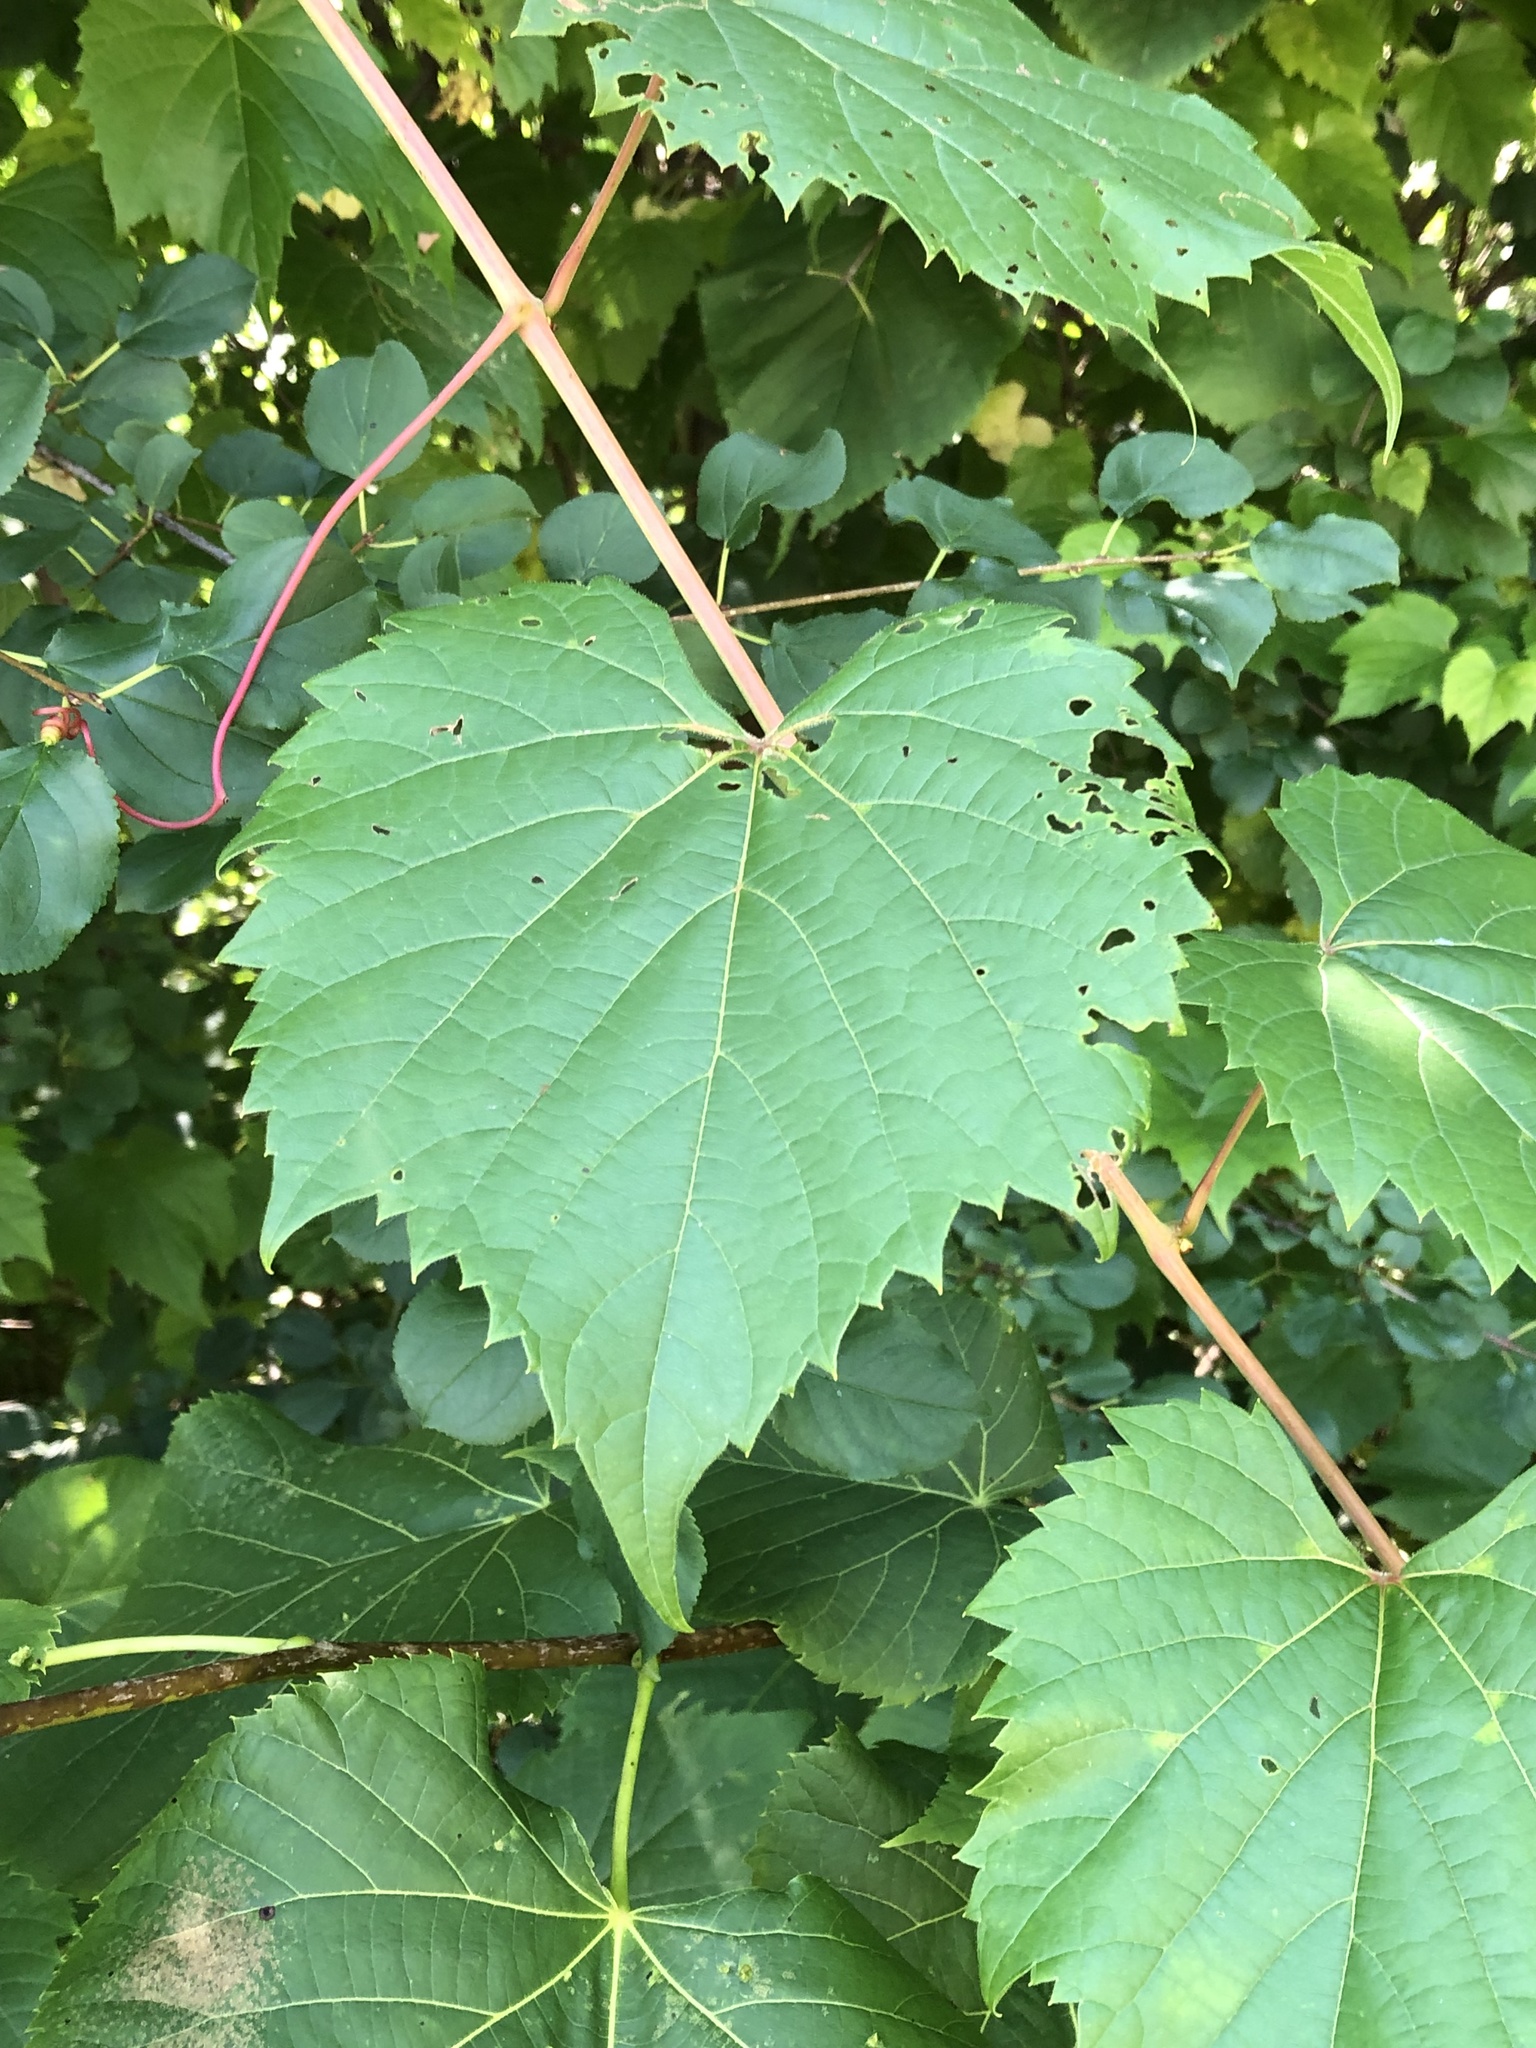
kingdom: Plantae
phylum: Tracheophyta
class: Magnoliopsida
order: Vitales
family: Vitaceae
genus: Vitis
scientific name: Vitis riparia
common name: Frost grape
